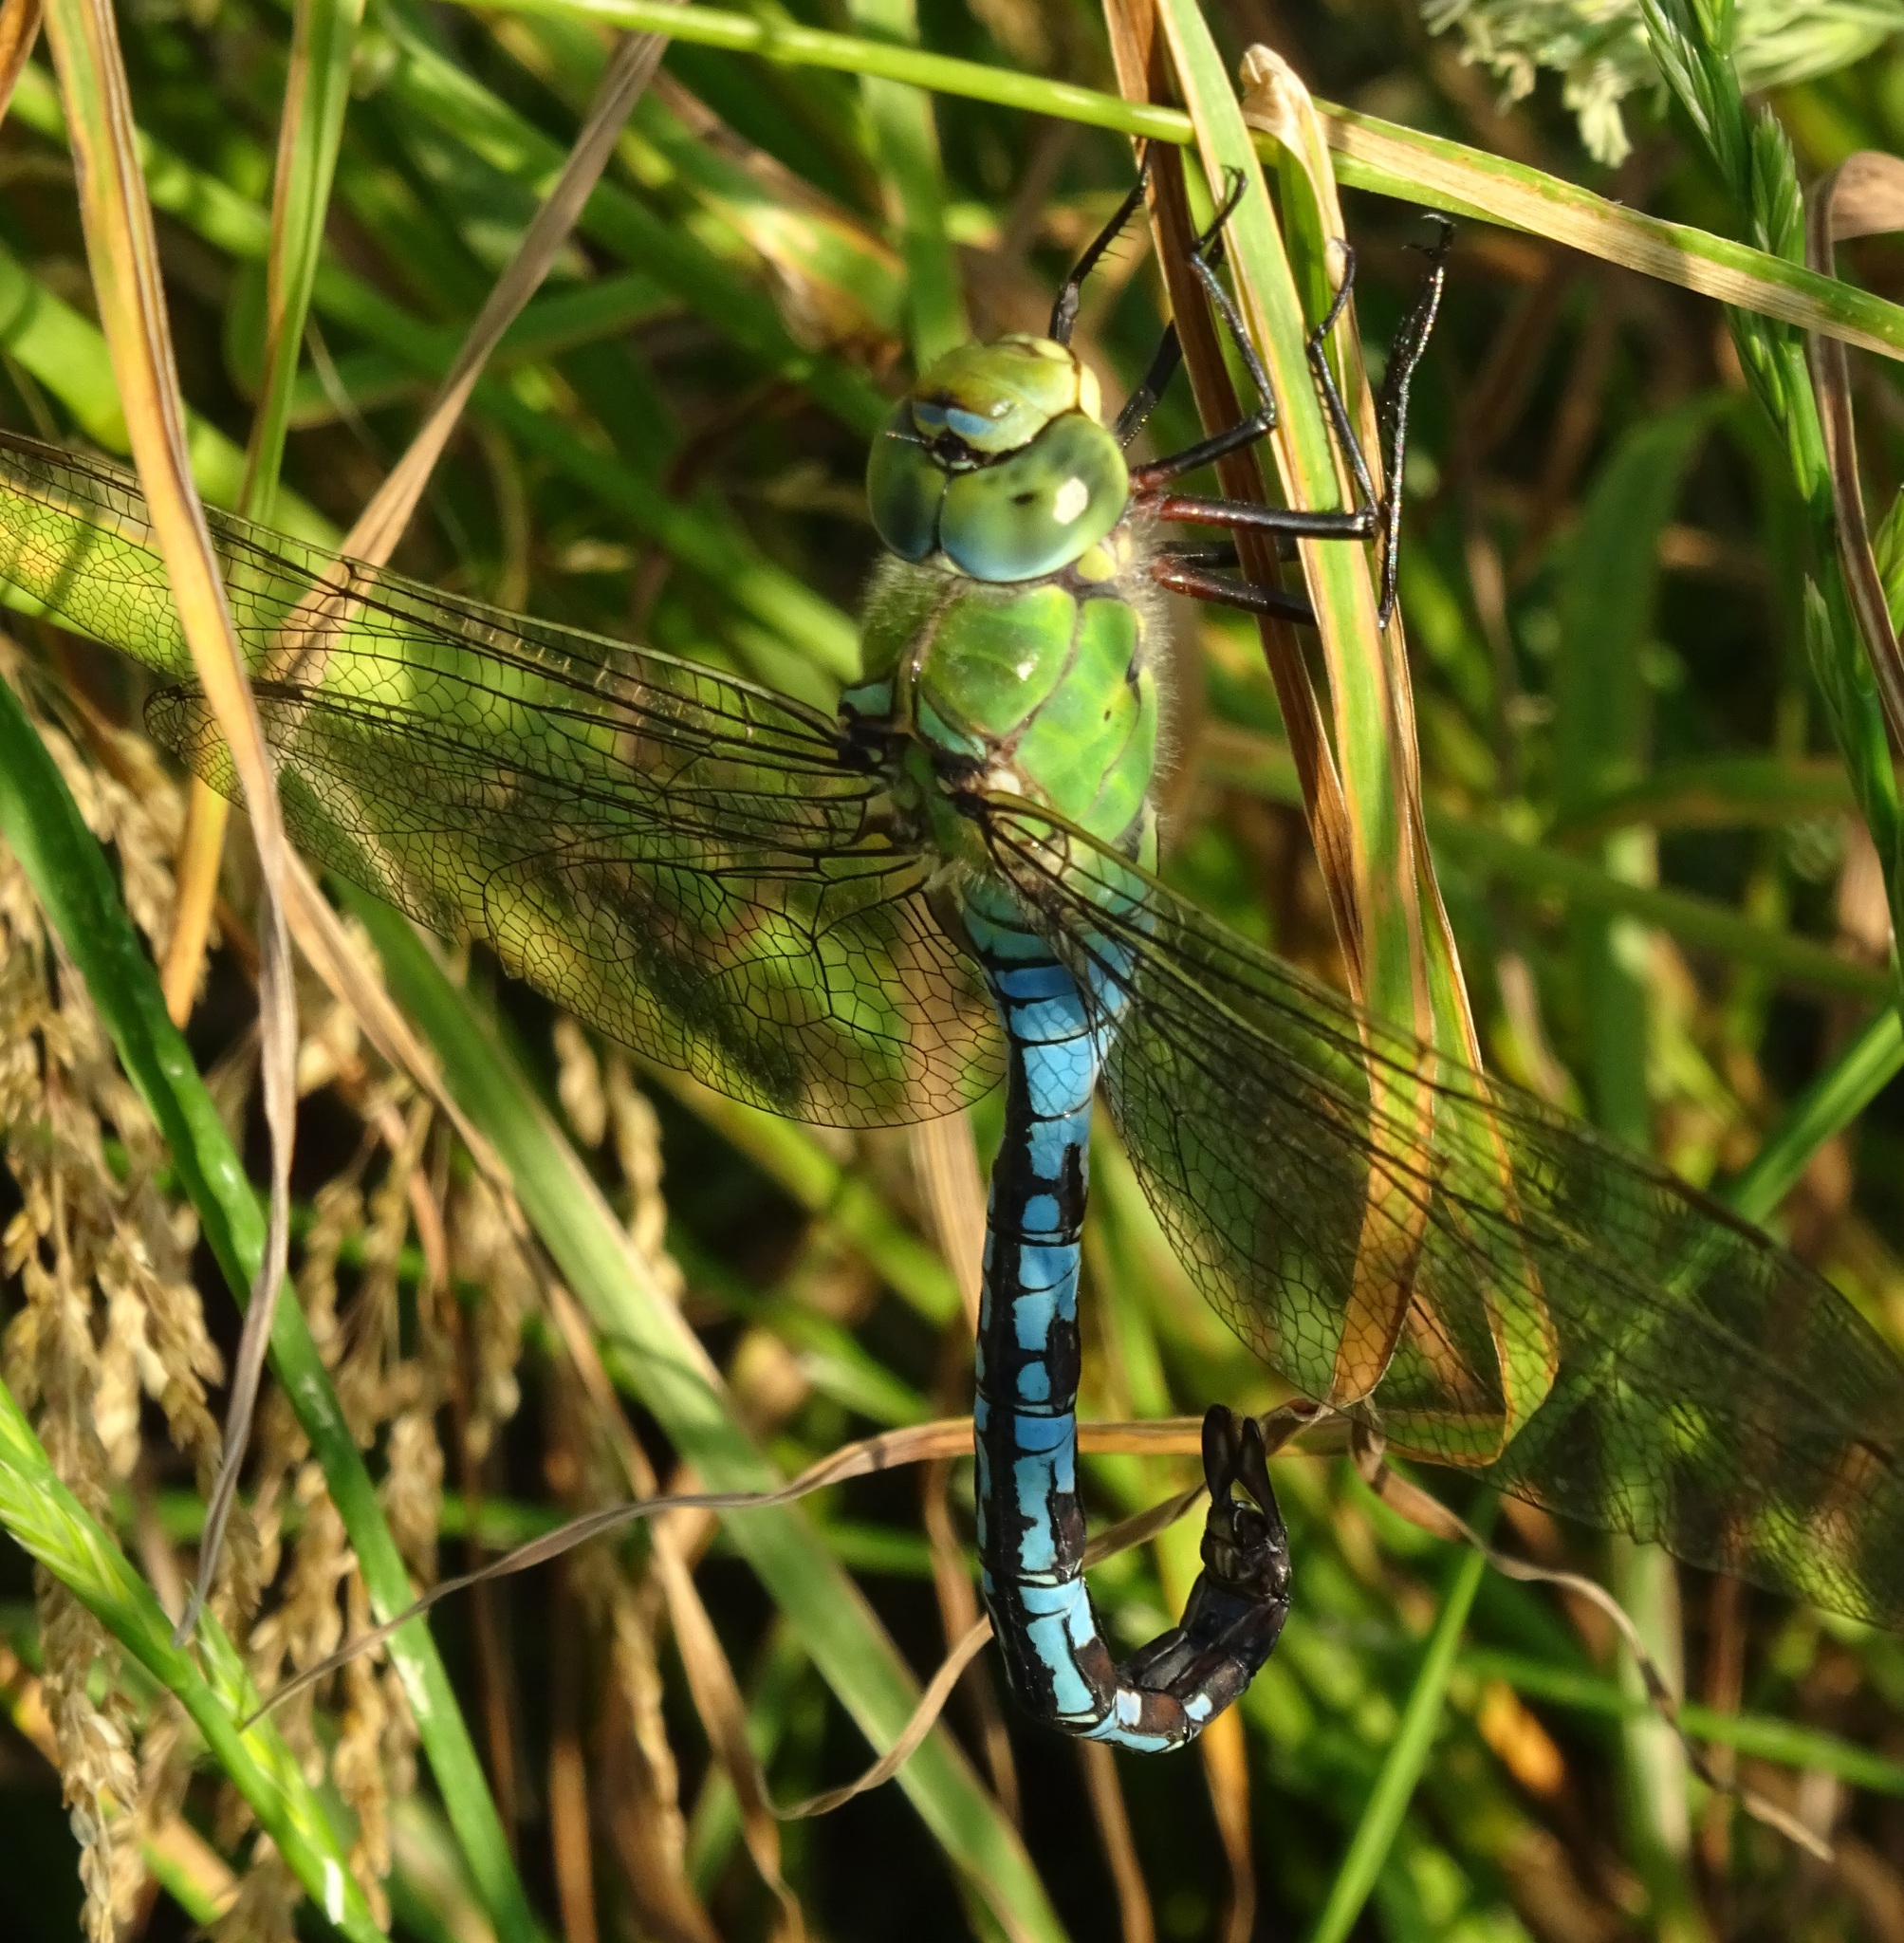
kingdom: Animalia
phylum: Arthropoda
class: Insecta
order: Odonata
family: Aeshnidae
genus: Anax
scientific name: Anax imperator
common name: Emperor dragonfly
